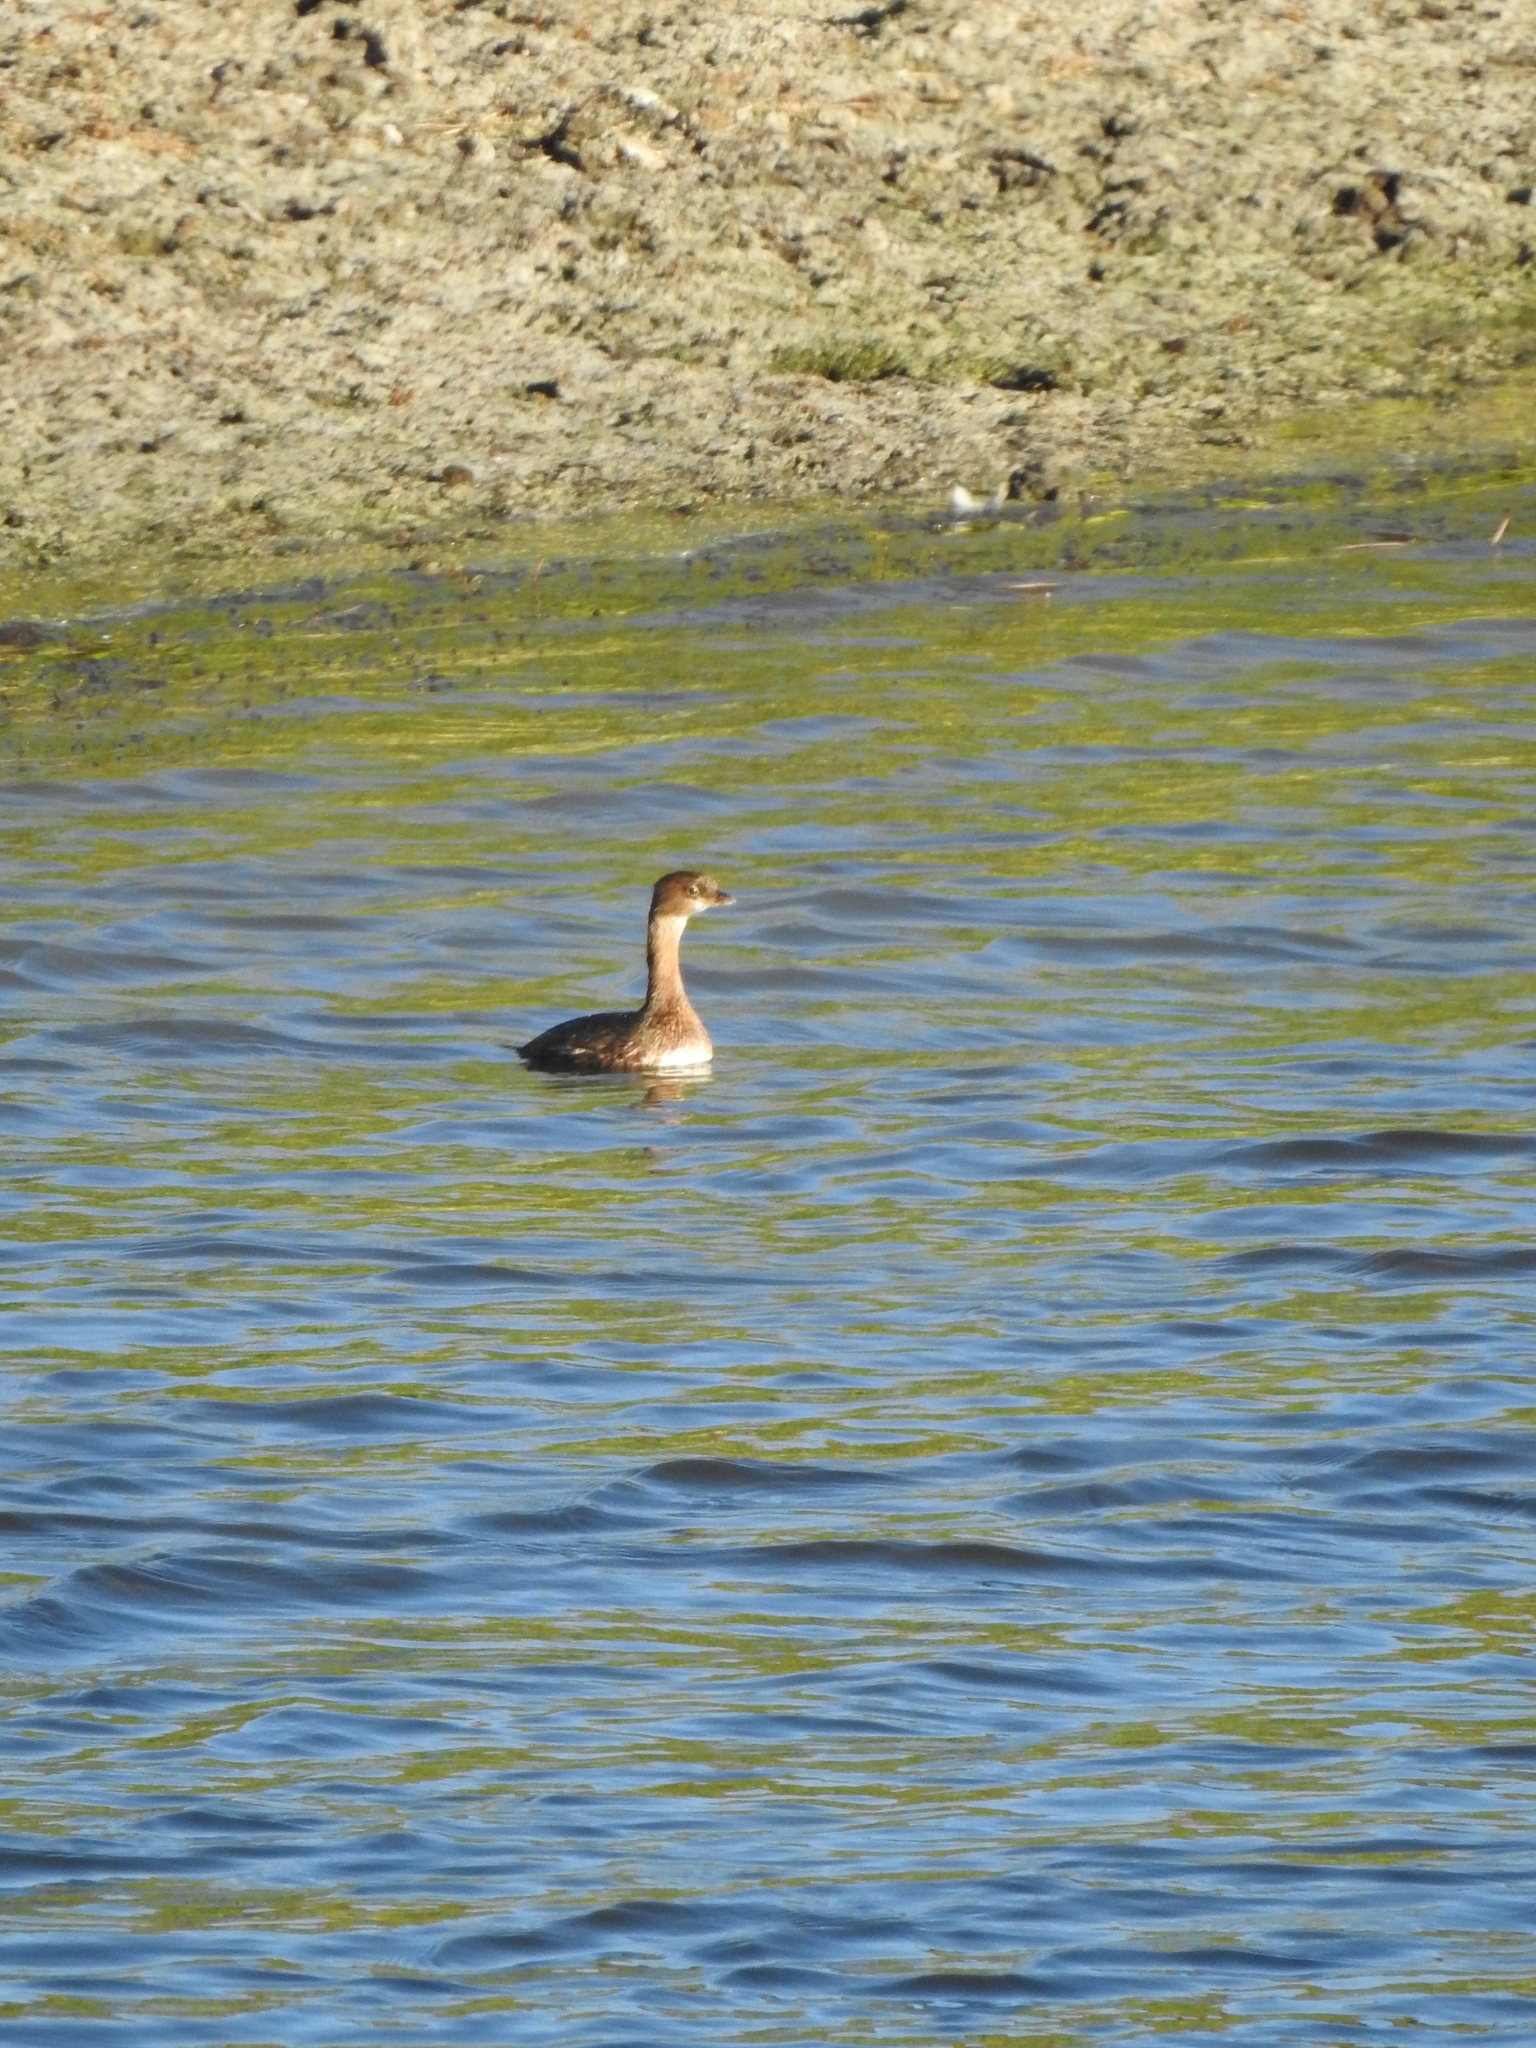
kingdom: Animalia
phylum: Chordata
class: Aves
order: Podicipediformes
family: Podicipedidae
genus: Podilymbus
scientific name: Podilymbus podiceps
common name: Pied-billed grebe
